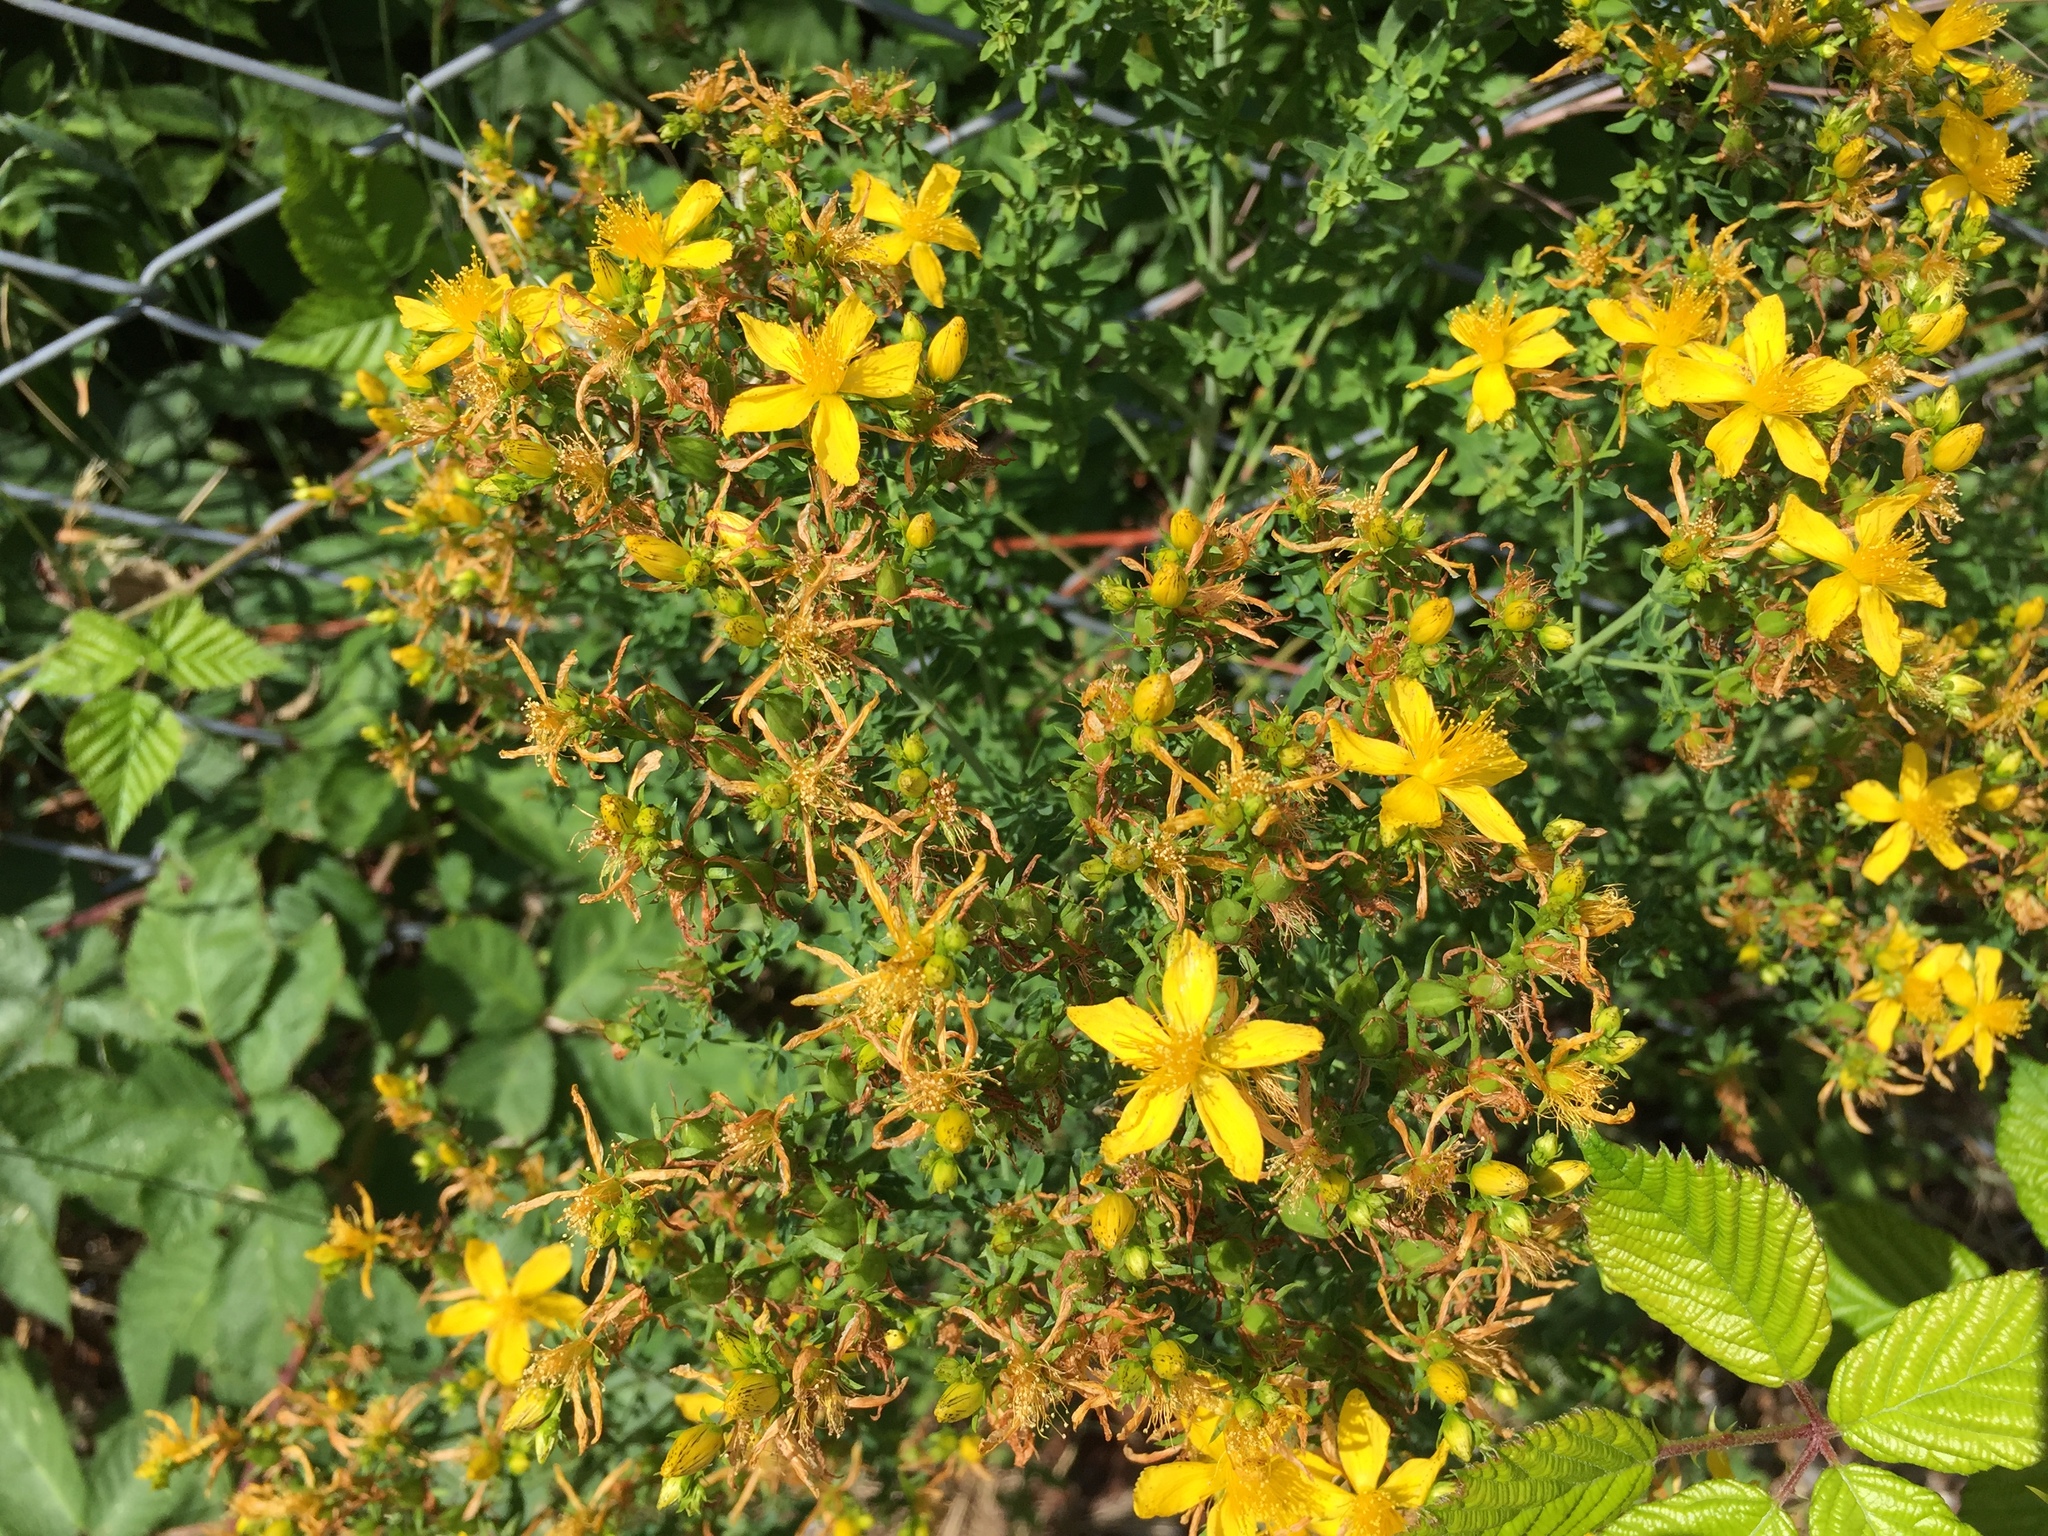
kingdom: Plantae
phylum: Tracheophyta
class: Magnoliopsida
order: Malpighiales
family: Hypericaceae
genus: Hypericum
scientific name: Hypericum perforatum
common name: Common st. johnswort
